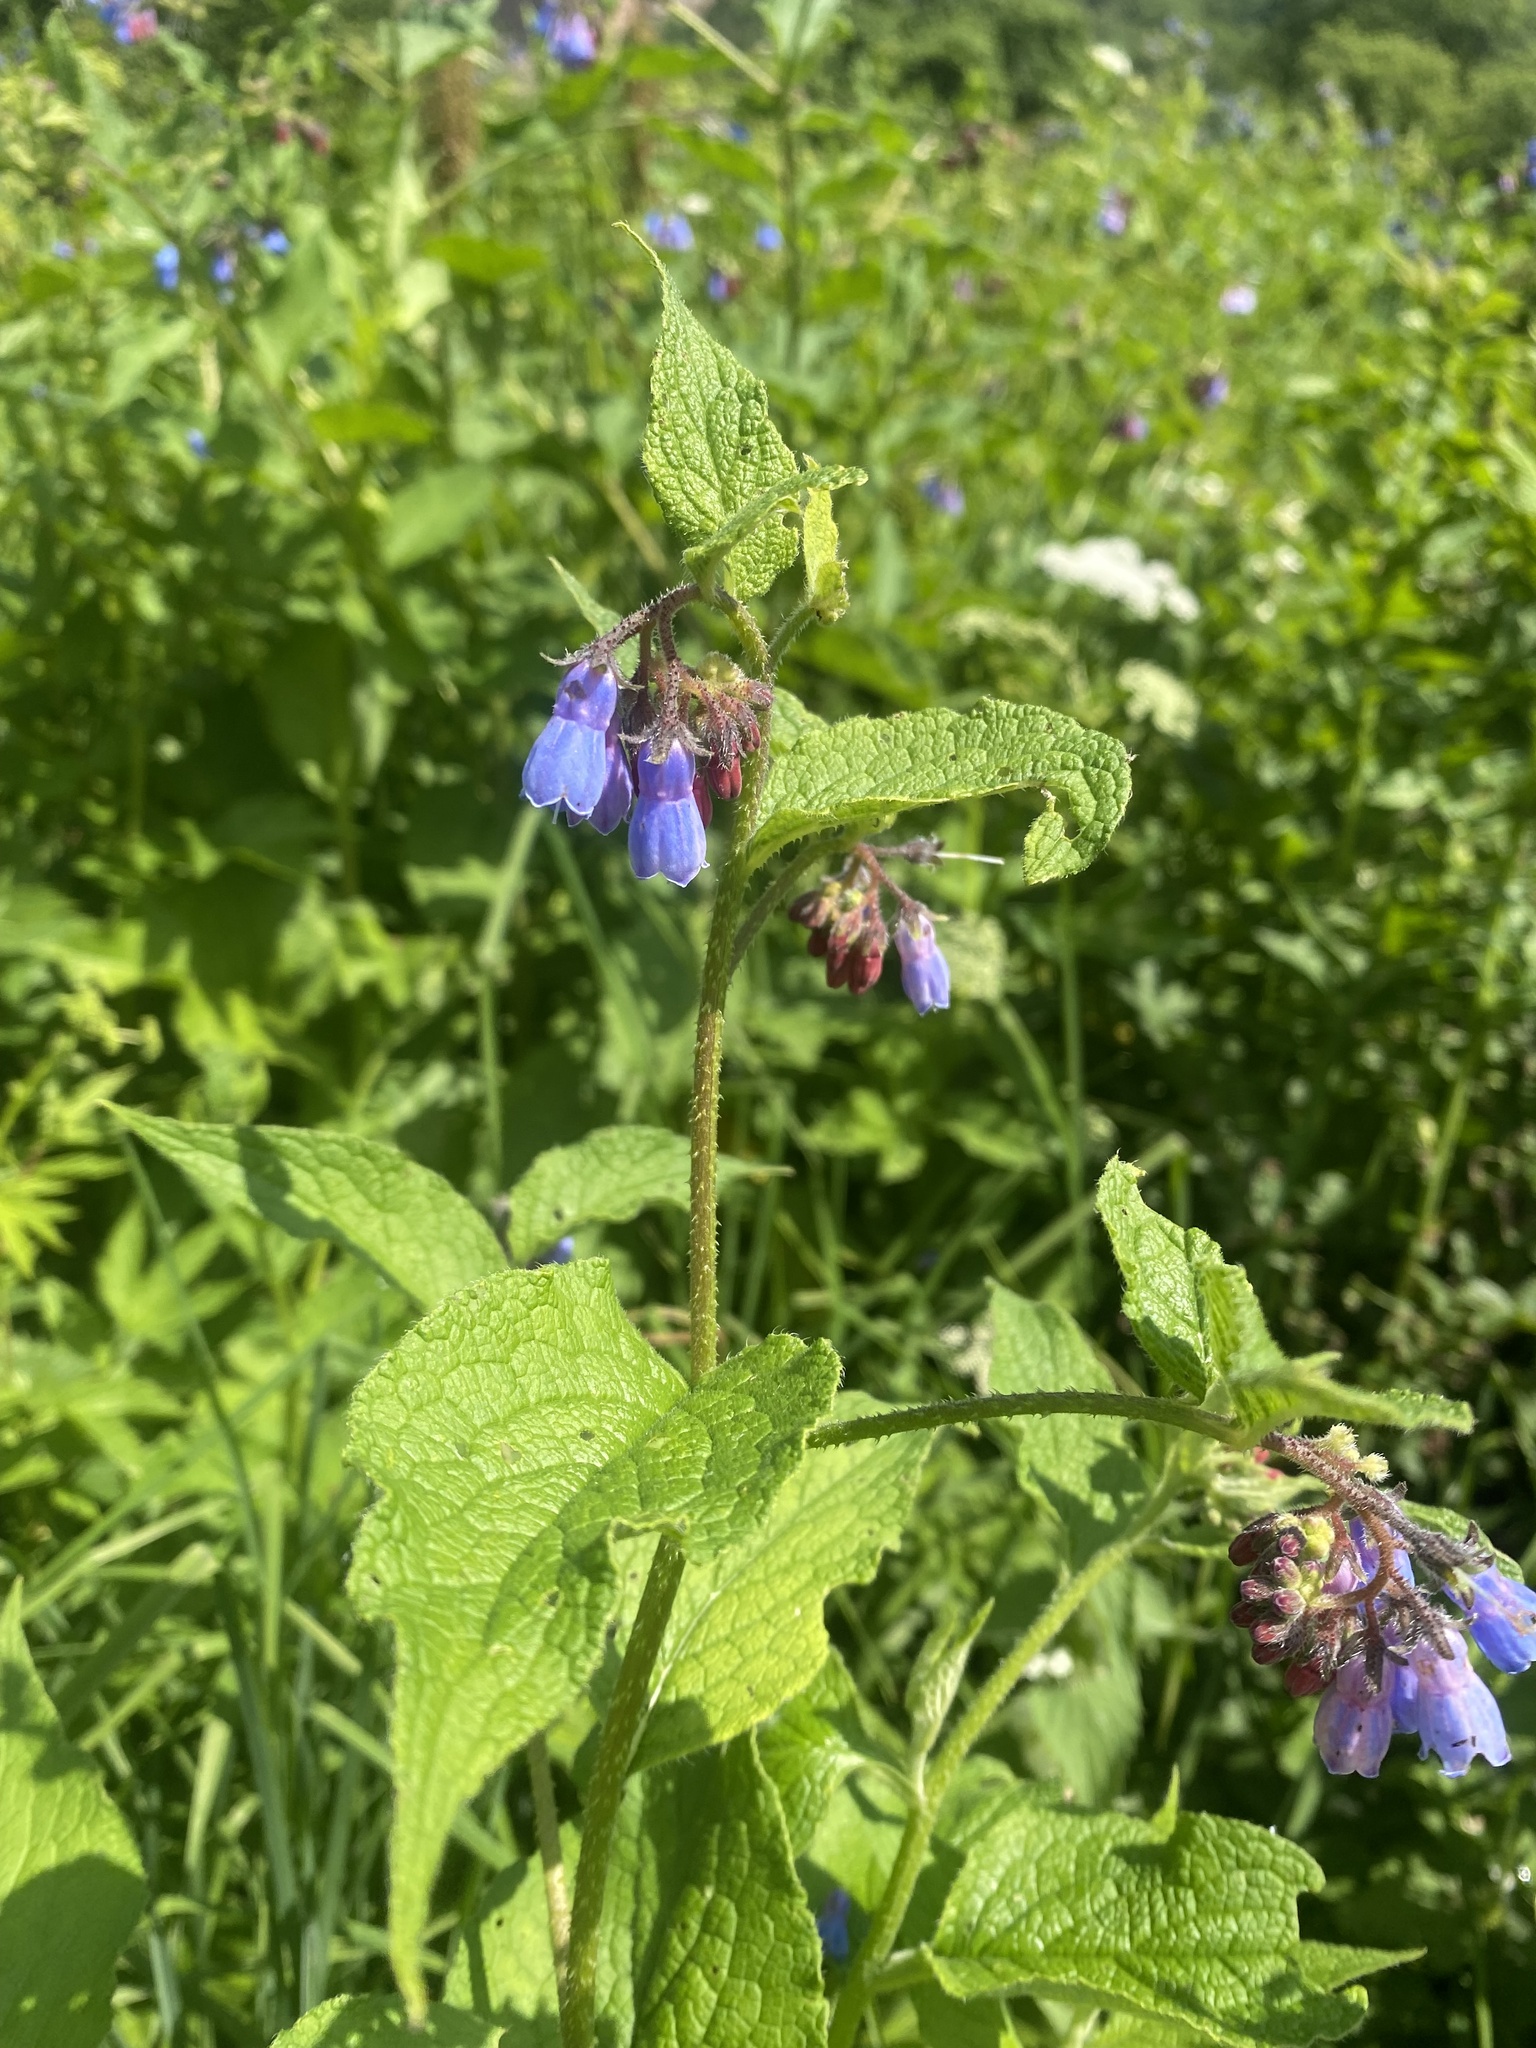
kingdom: Plantae
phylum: Tracheophyta
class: Magnoliopsida
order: Boraginales
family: Boraginaceae
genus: Symphytum
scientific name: Symphytum asperum
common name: Prickly comfrey
